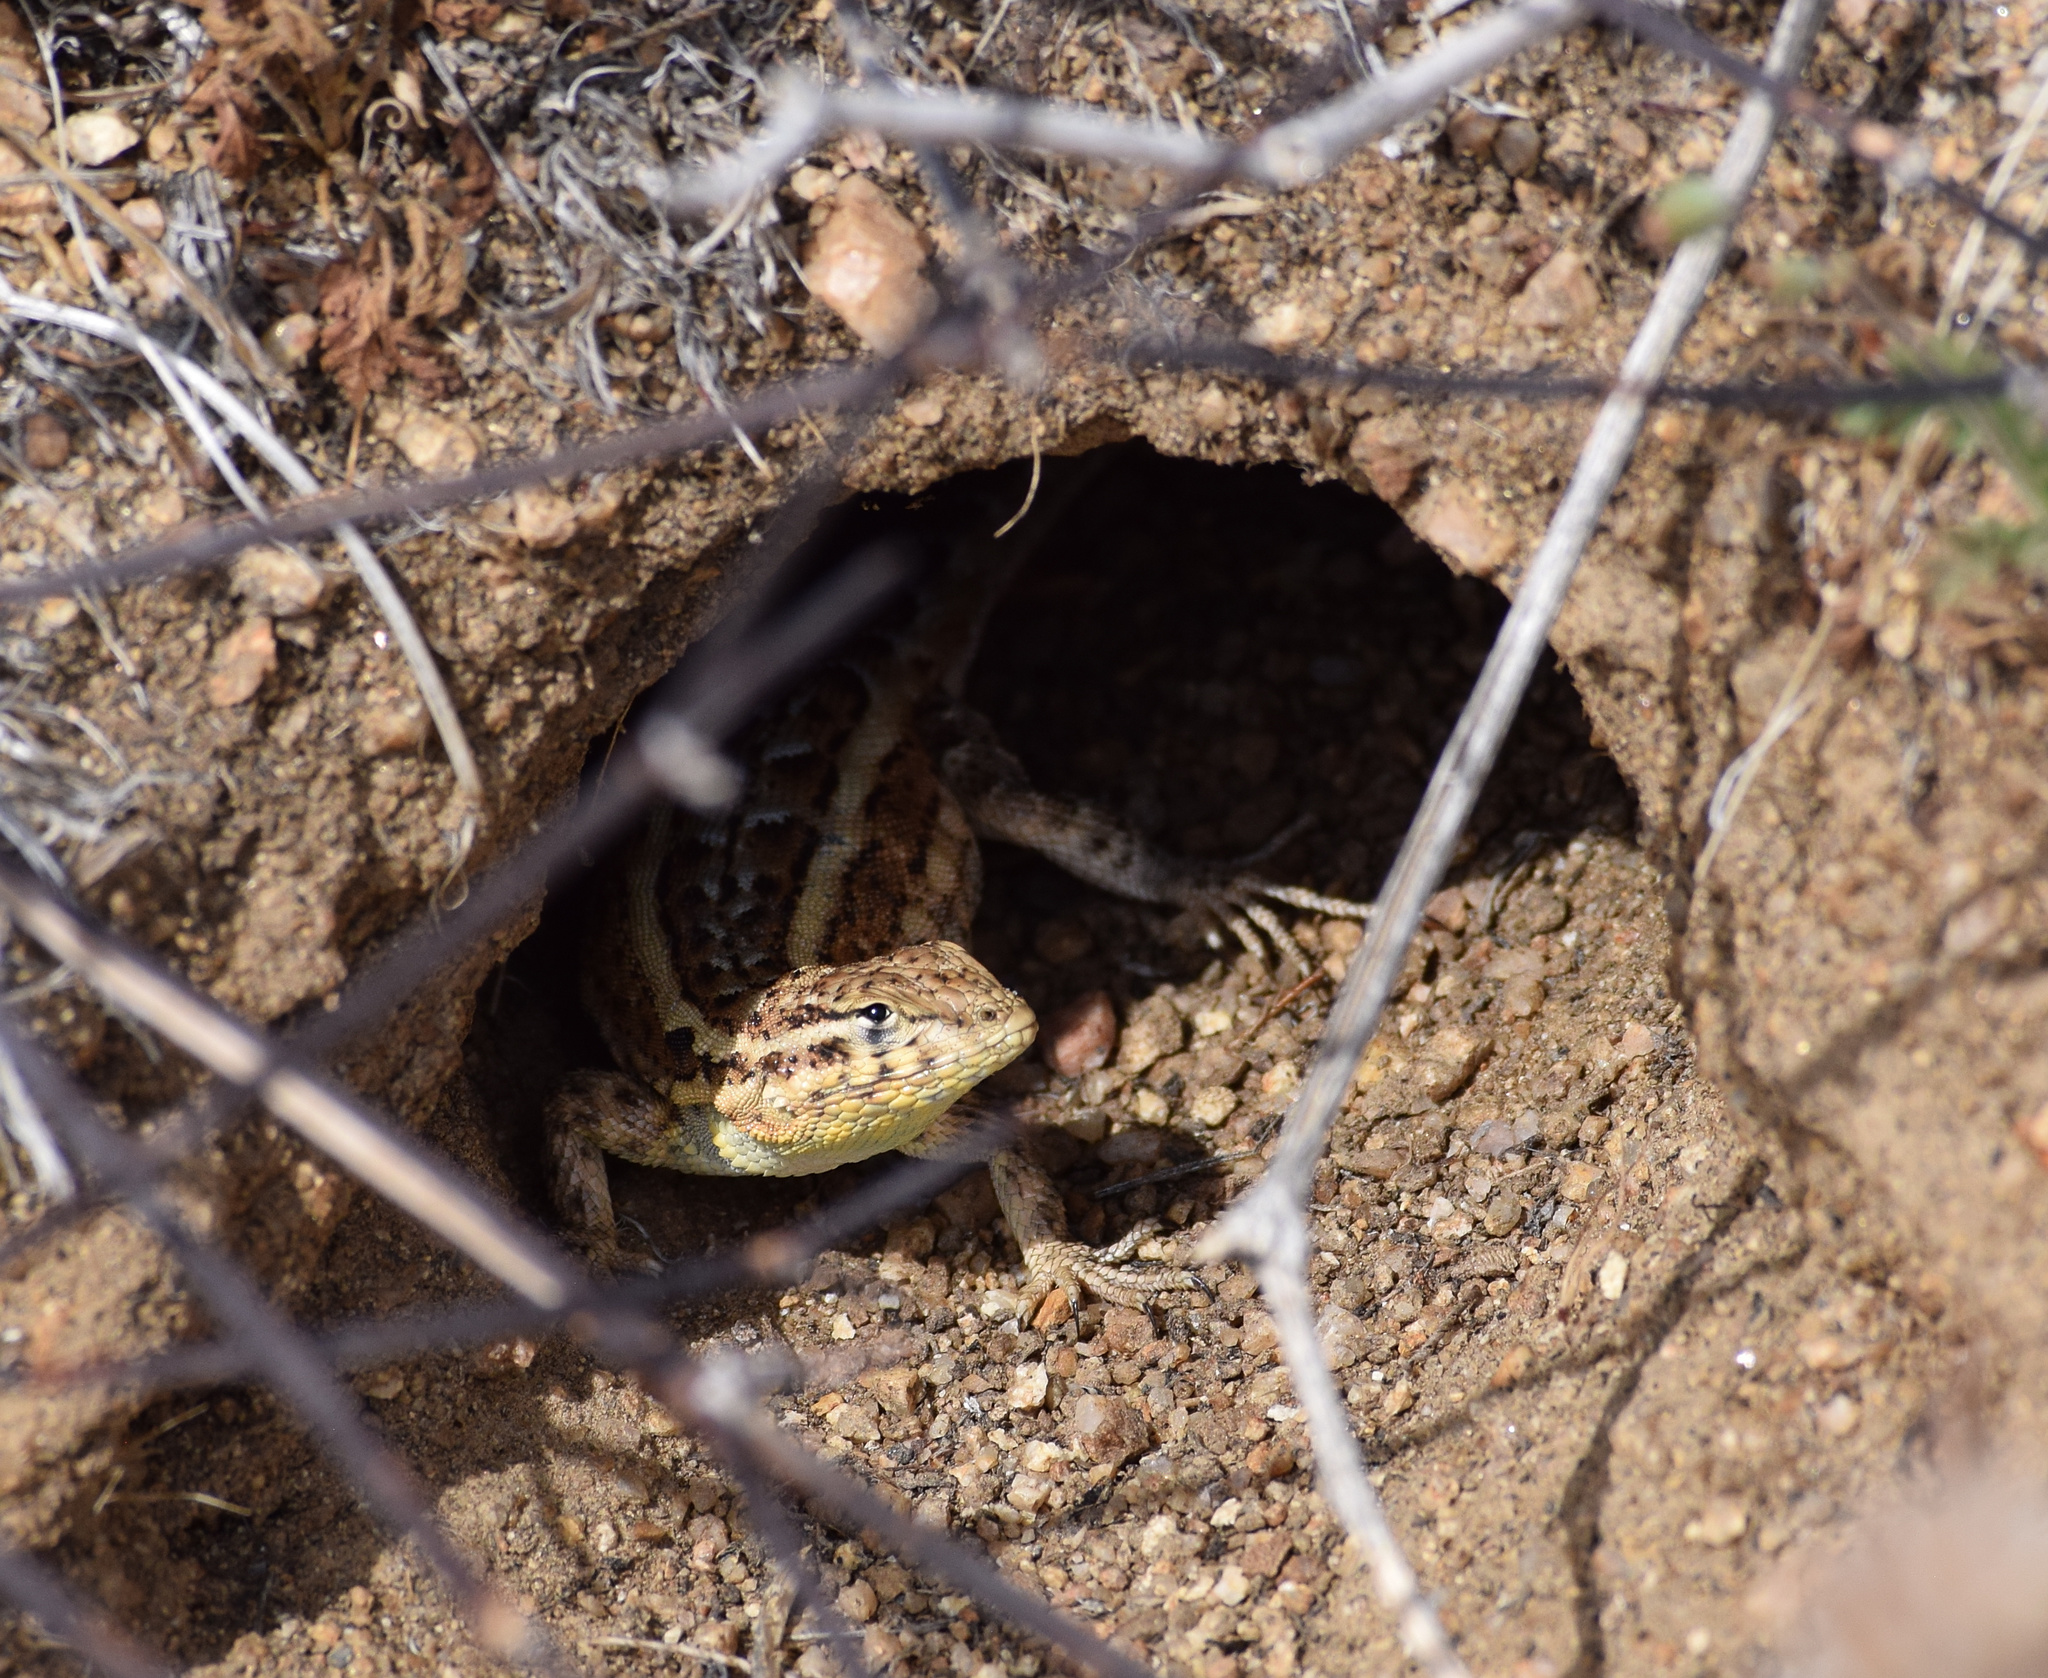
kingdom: Animalia
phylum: Chordata
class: Squamata
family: Phrynosomatidae
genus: Uta
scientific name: Uta stansburiana
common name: Side-blotched lizard
